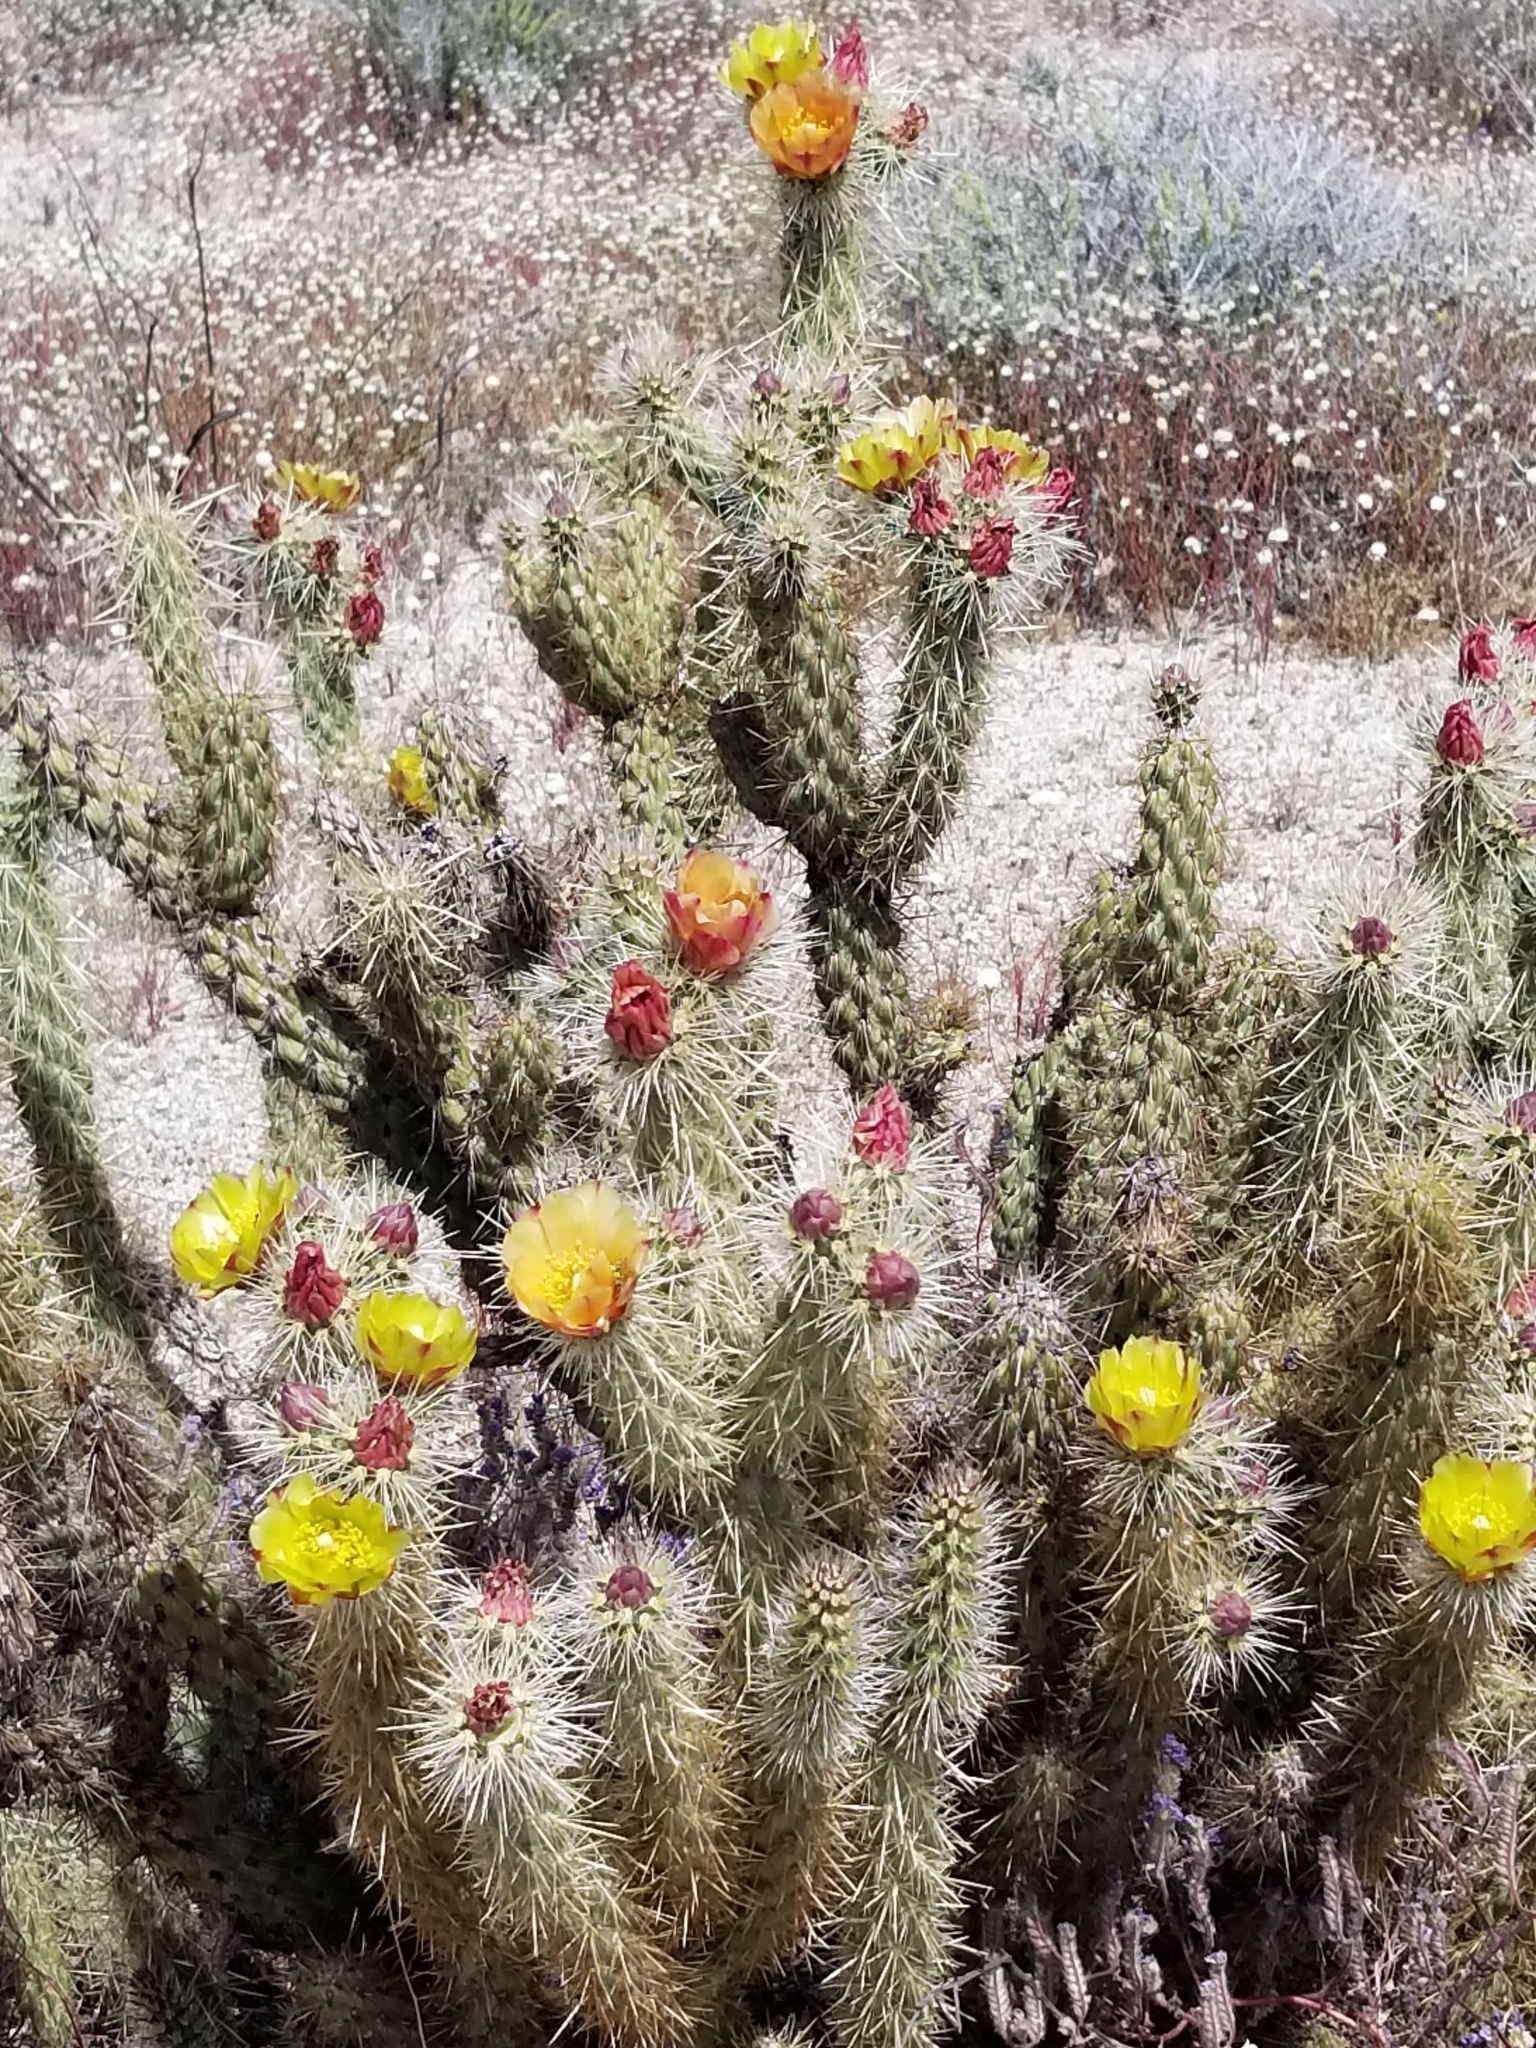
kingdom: Plantae
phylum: Tracheophyta
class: Magnoliopsida
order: Caryophyllales
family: Cactaceae
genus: Cylindropuntia
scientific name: Cylindropuntia ganderi
